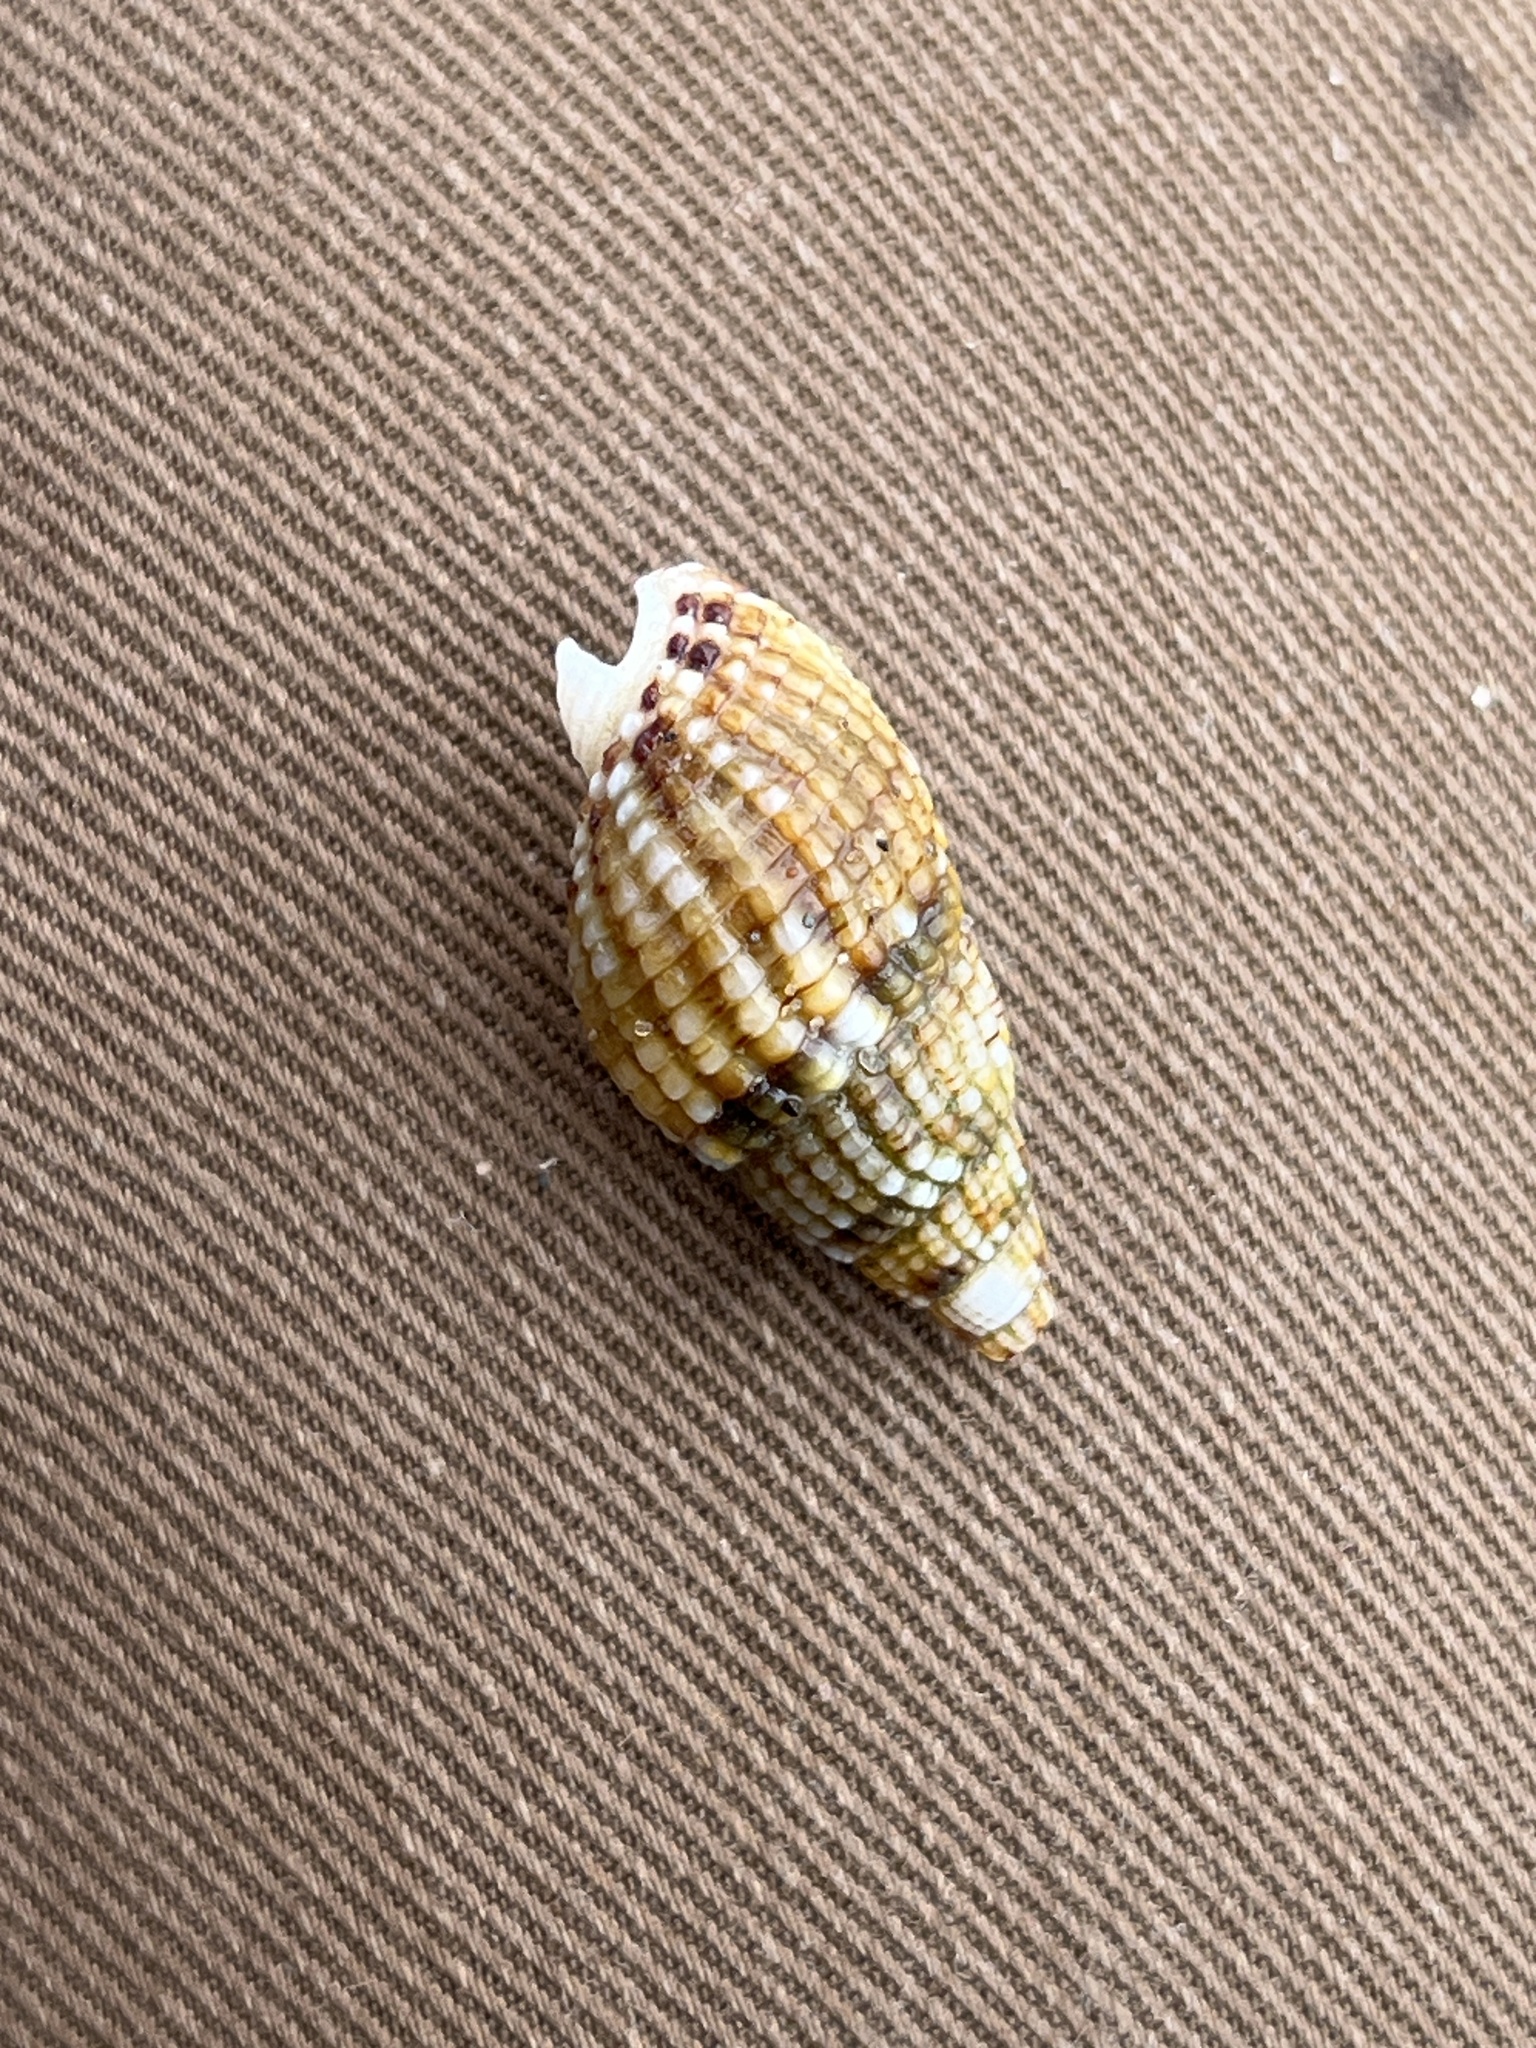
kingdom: Animalia
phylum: Mollusca
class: Gastropoda
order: Neogastropoda
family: Nassariidae
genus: Tritia
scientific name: Tritia reticulata
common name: Netted dog whelk
